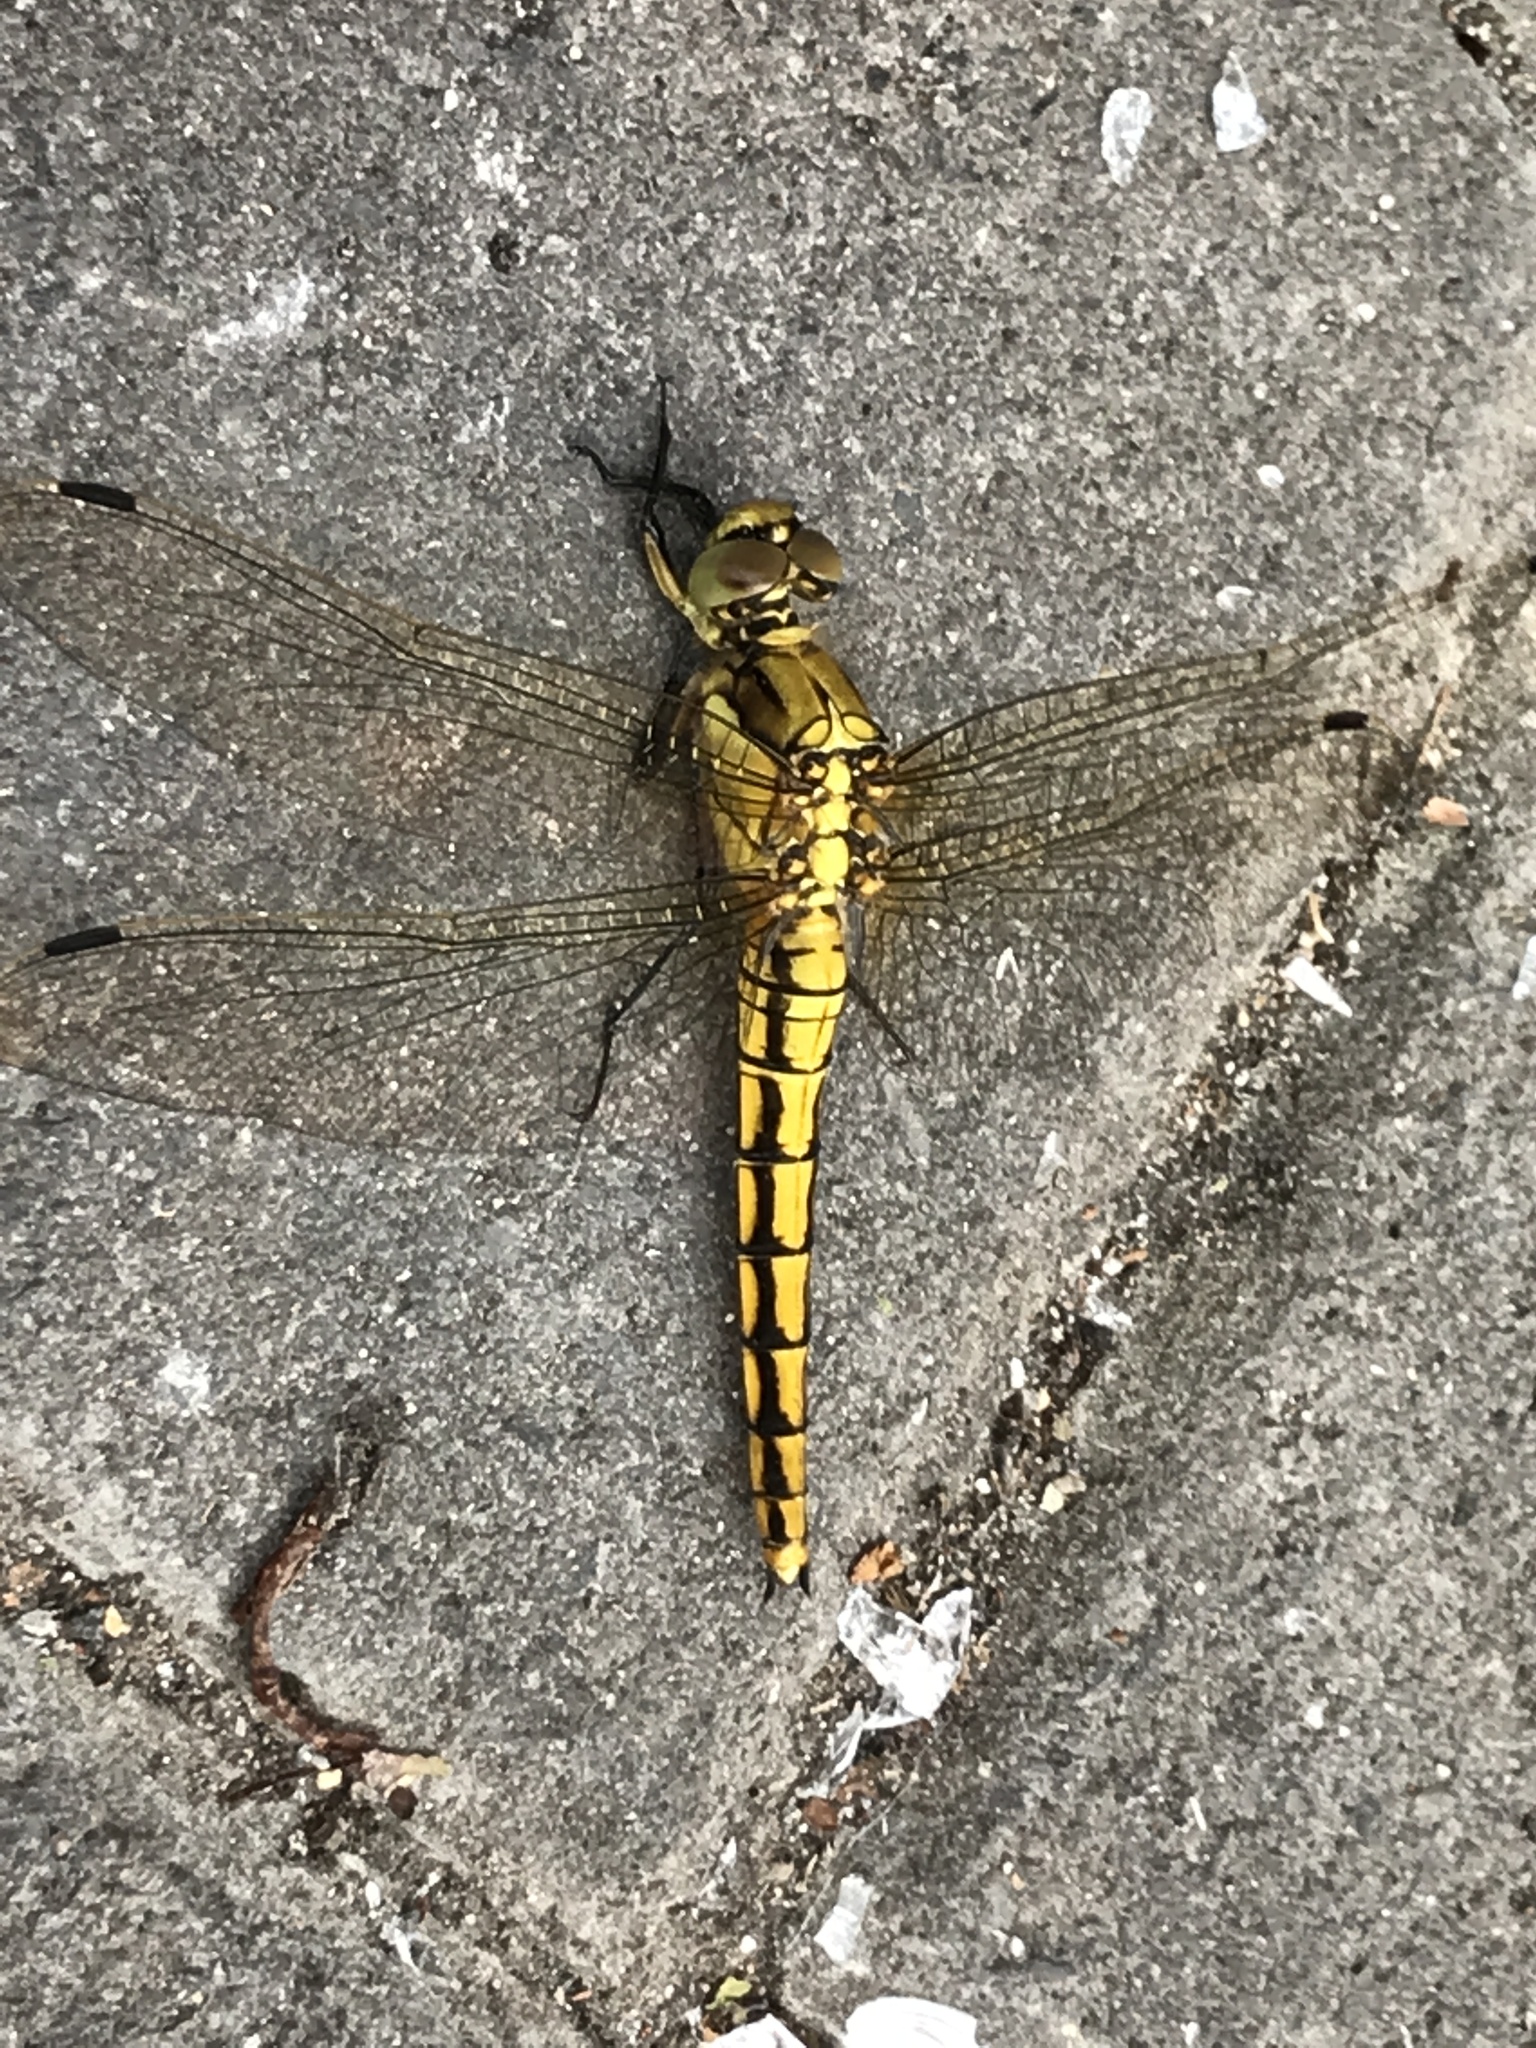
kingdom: Animalia
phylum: Arthropoda
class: Insecta
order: Odonata
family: Libellulidae
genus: Orthetrum
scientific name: Orthetrum cancellatum
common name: Black-tailed skimmer
